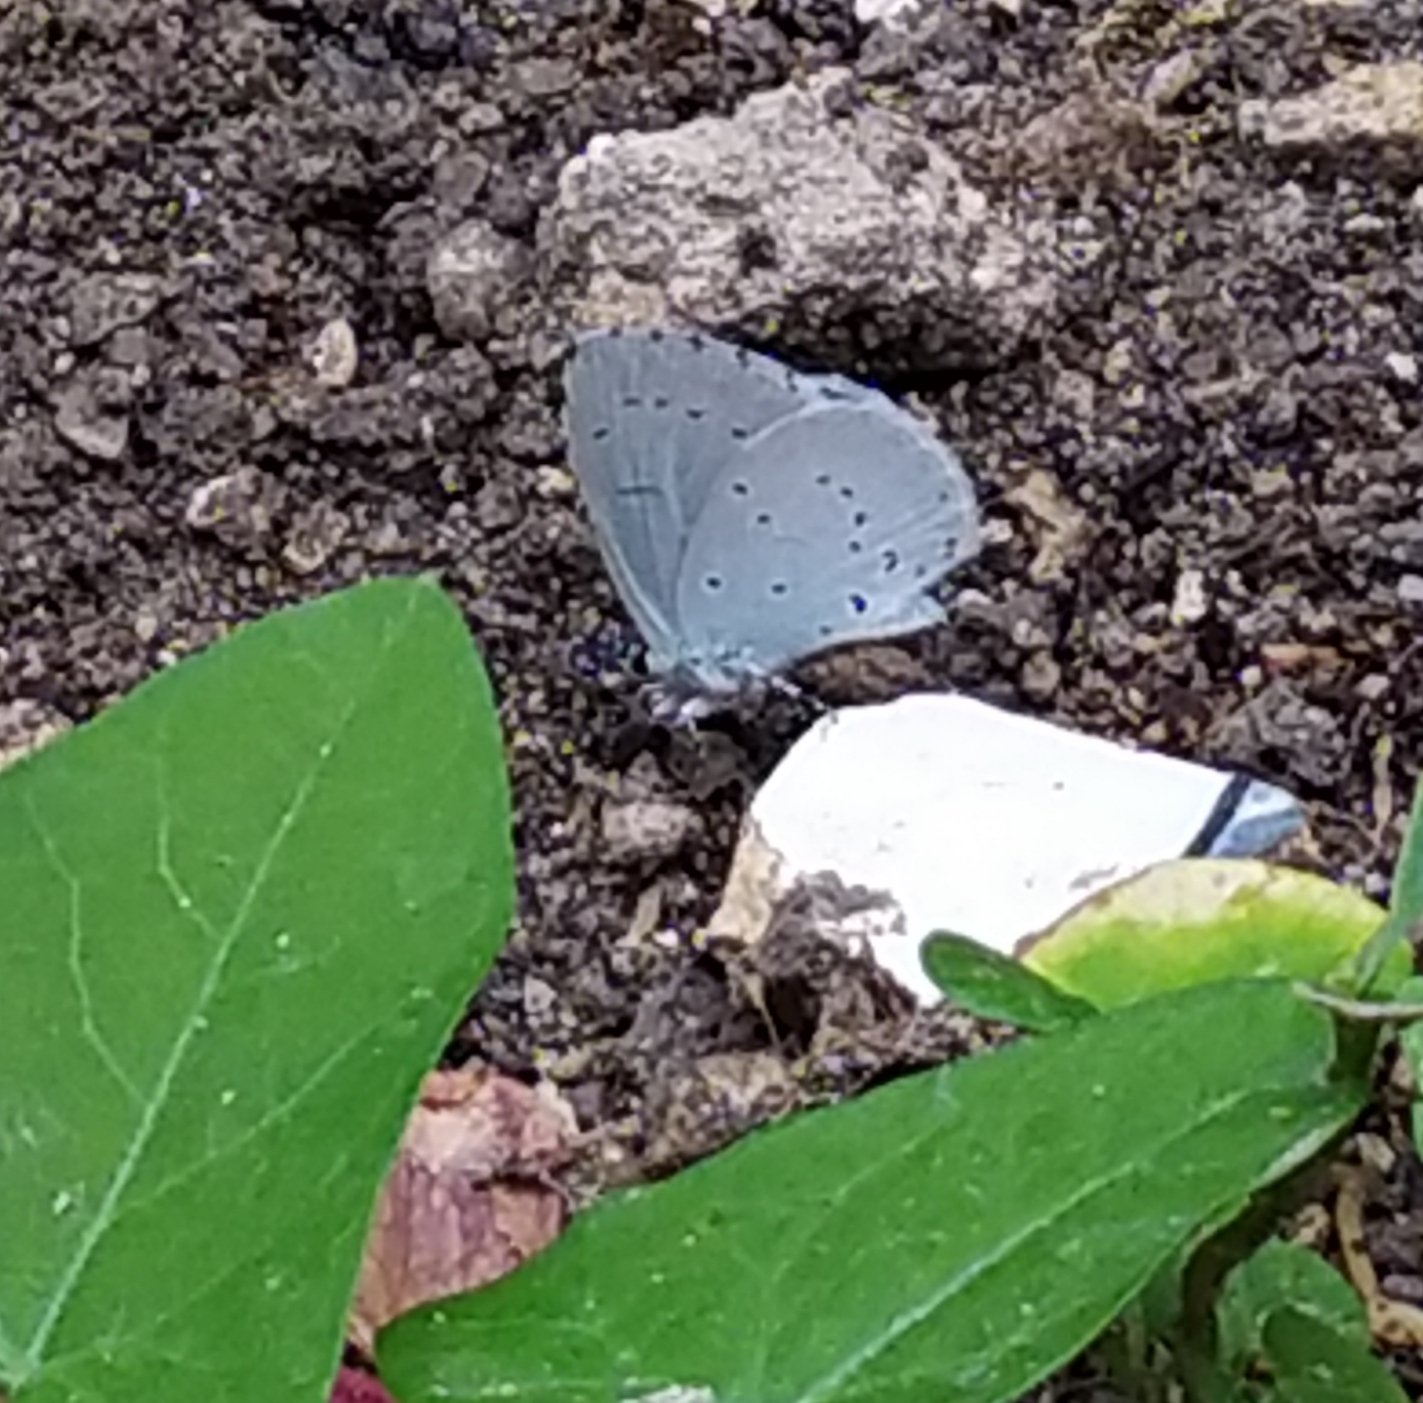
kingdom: Animalia
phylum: Arthropoda
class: Insecta
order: Lepidoptera
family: Lycaenidae
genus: Celastrina
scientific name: Celastrina argiolus
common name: Holly blue
